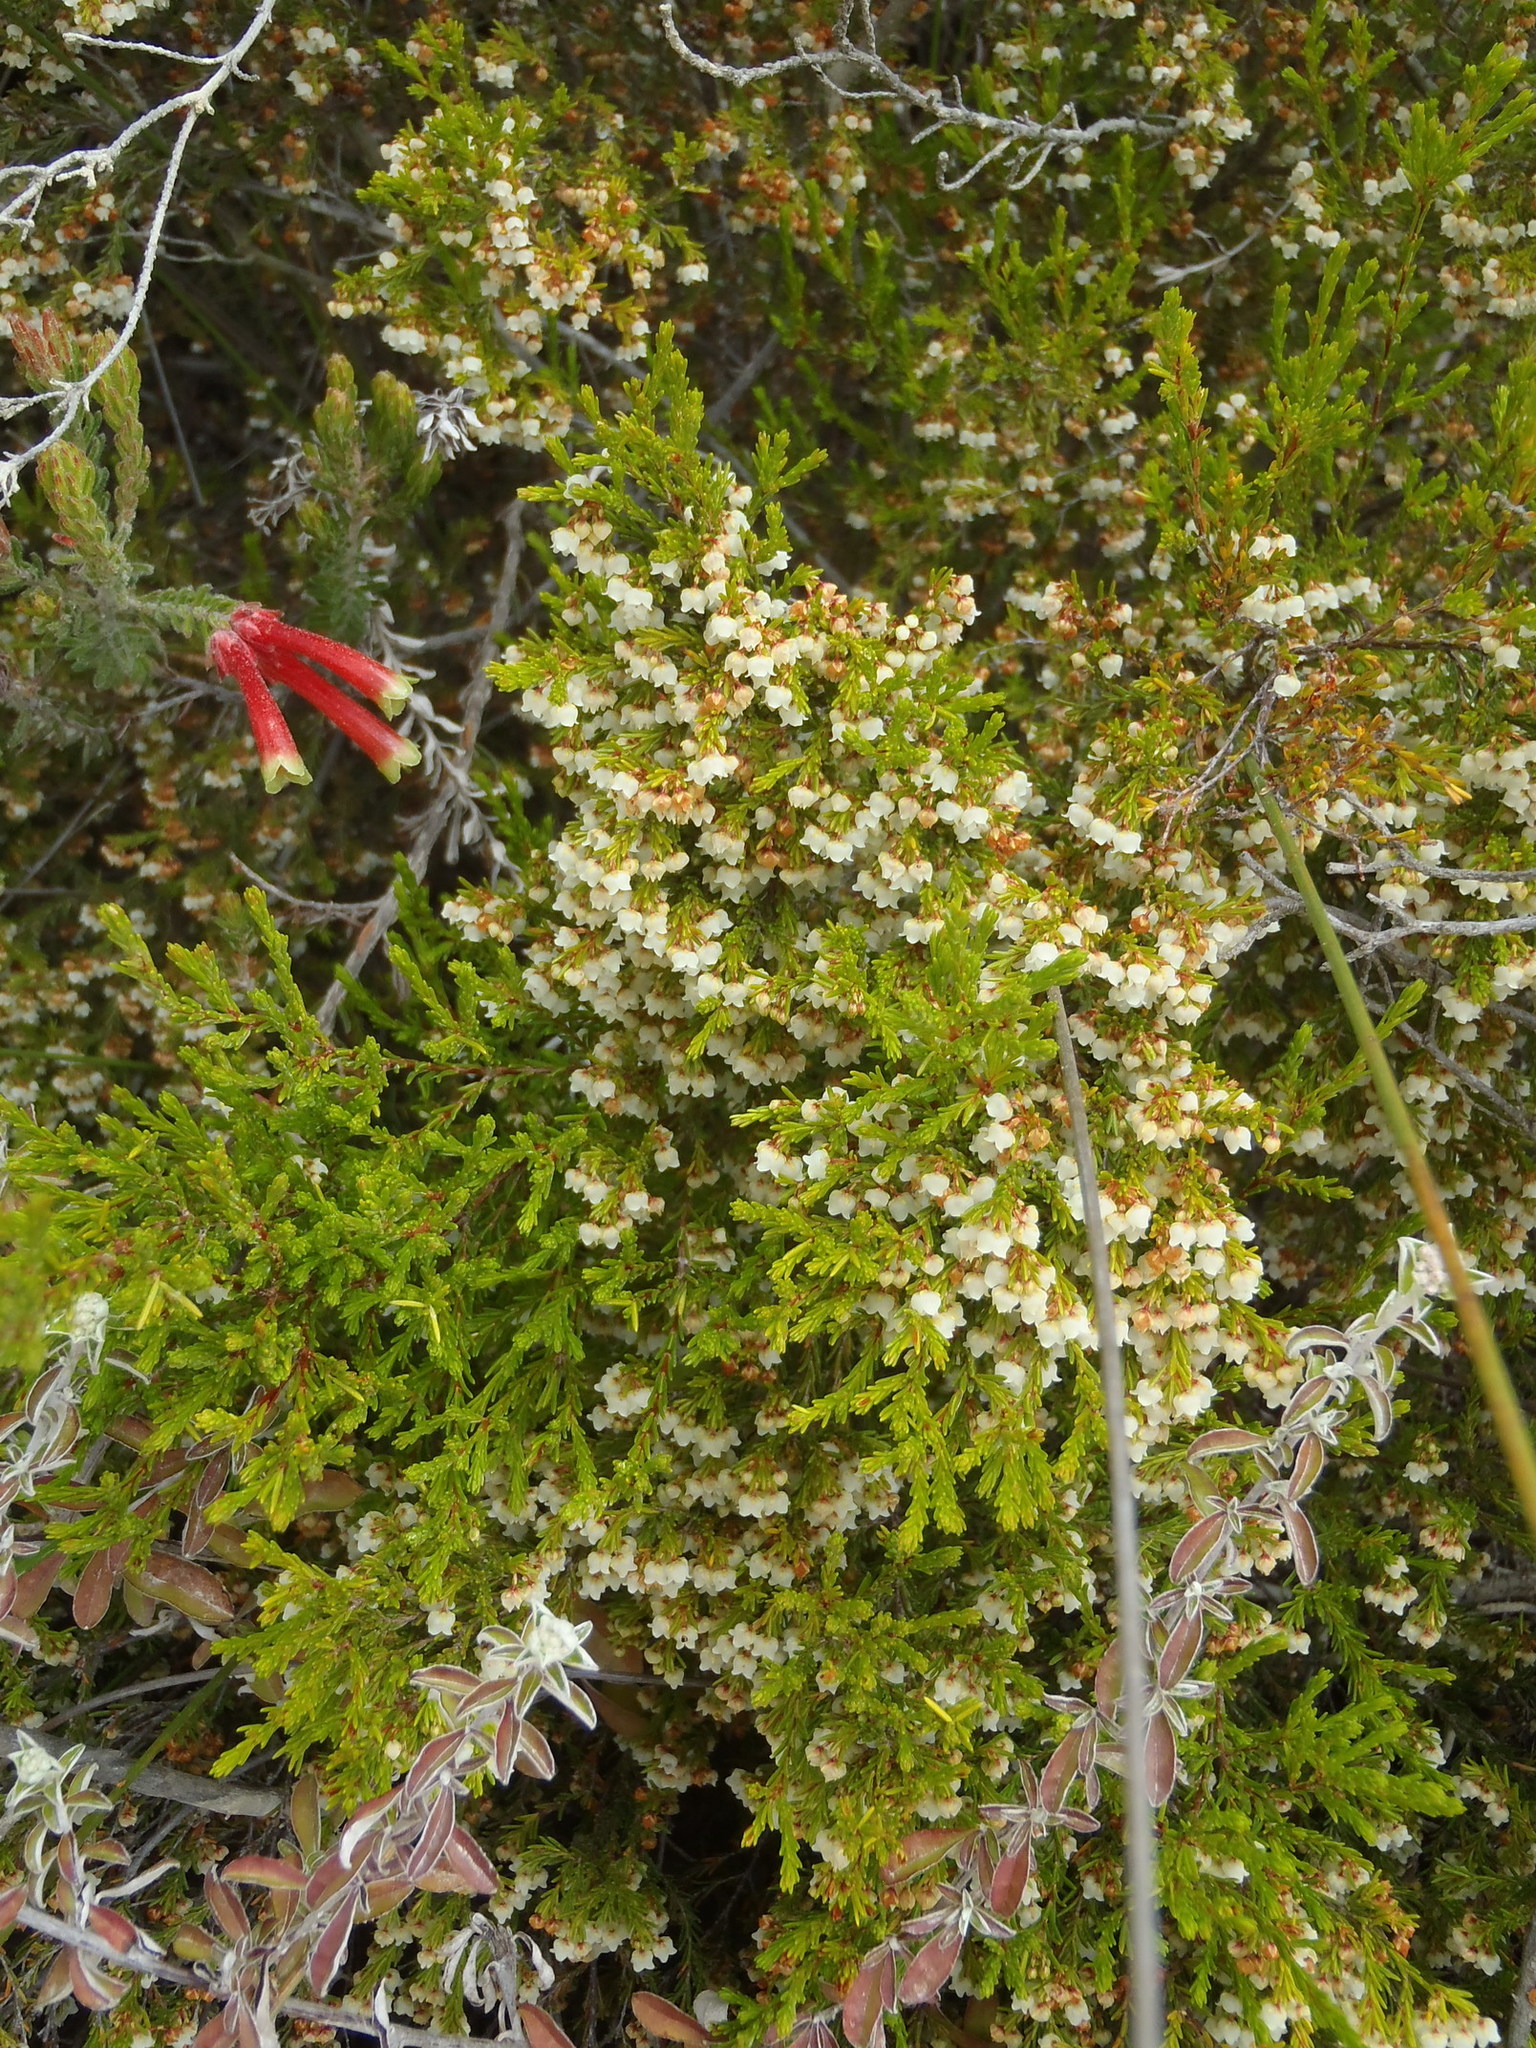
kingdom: Plantae
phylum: Tracheophyta
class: Magnoliopsida
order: Ericales
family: Ericaceae
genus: Erica
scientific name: Erica tenuis
